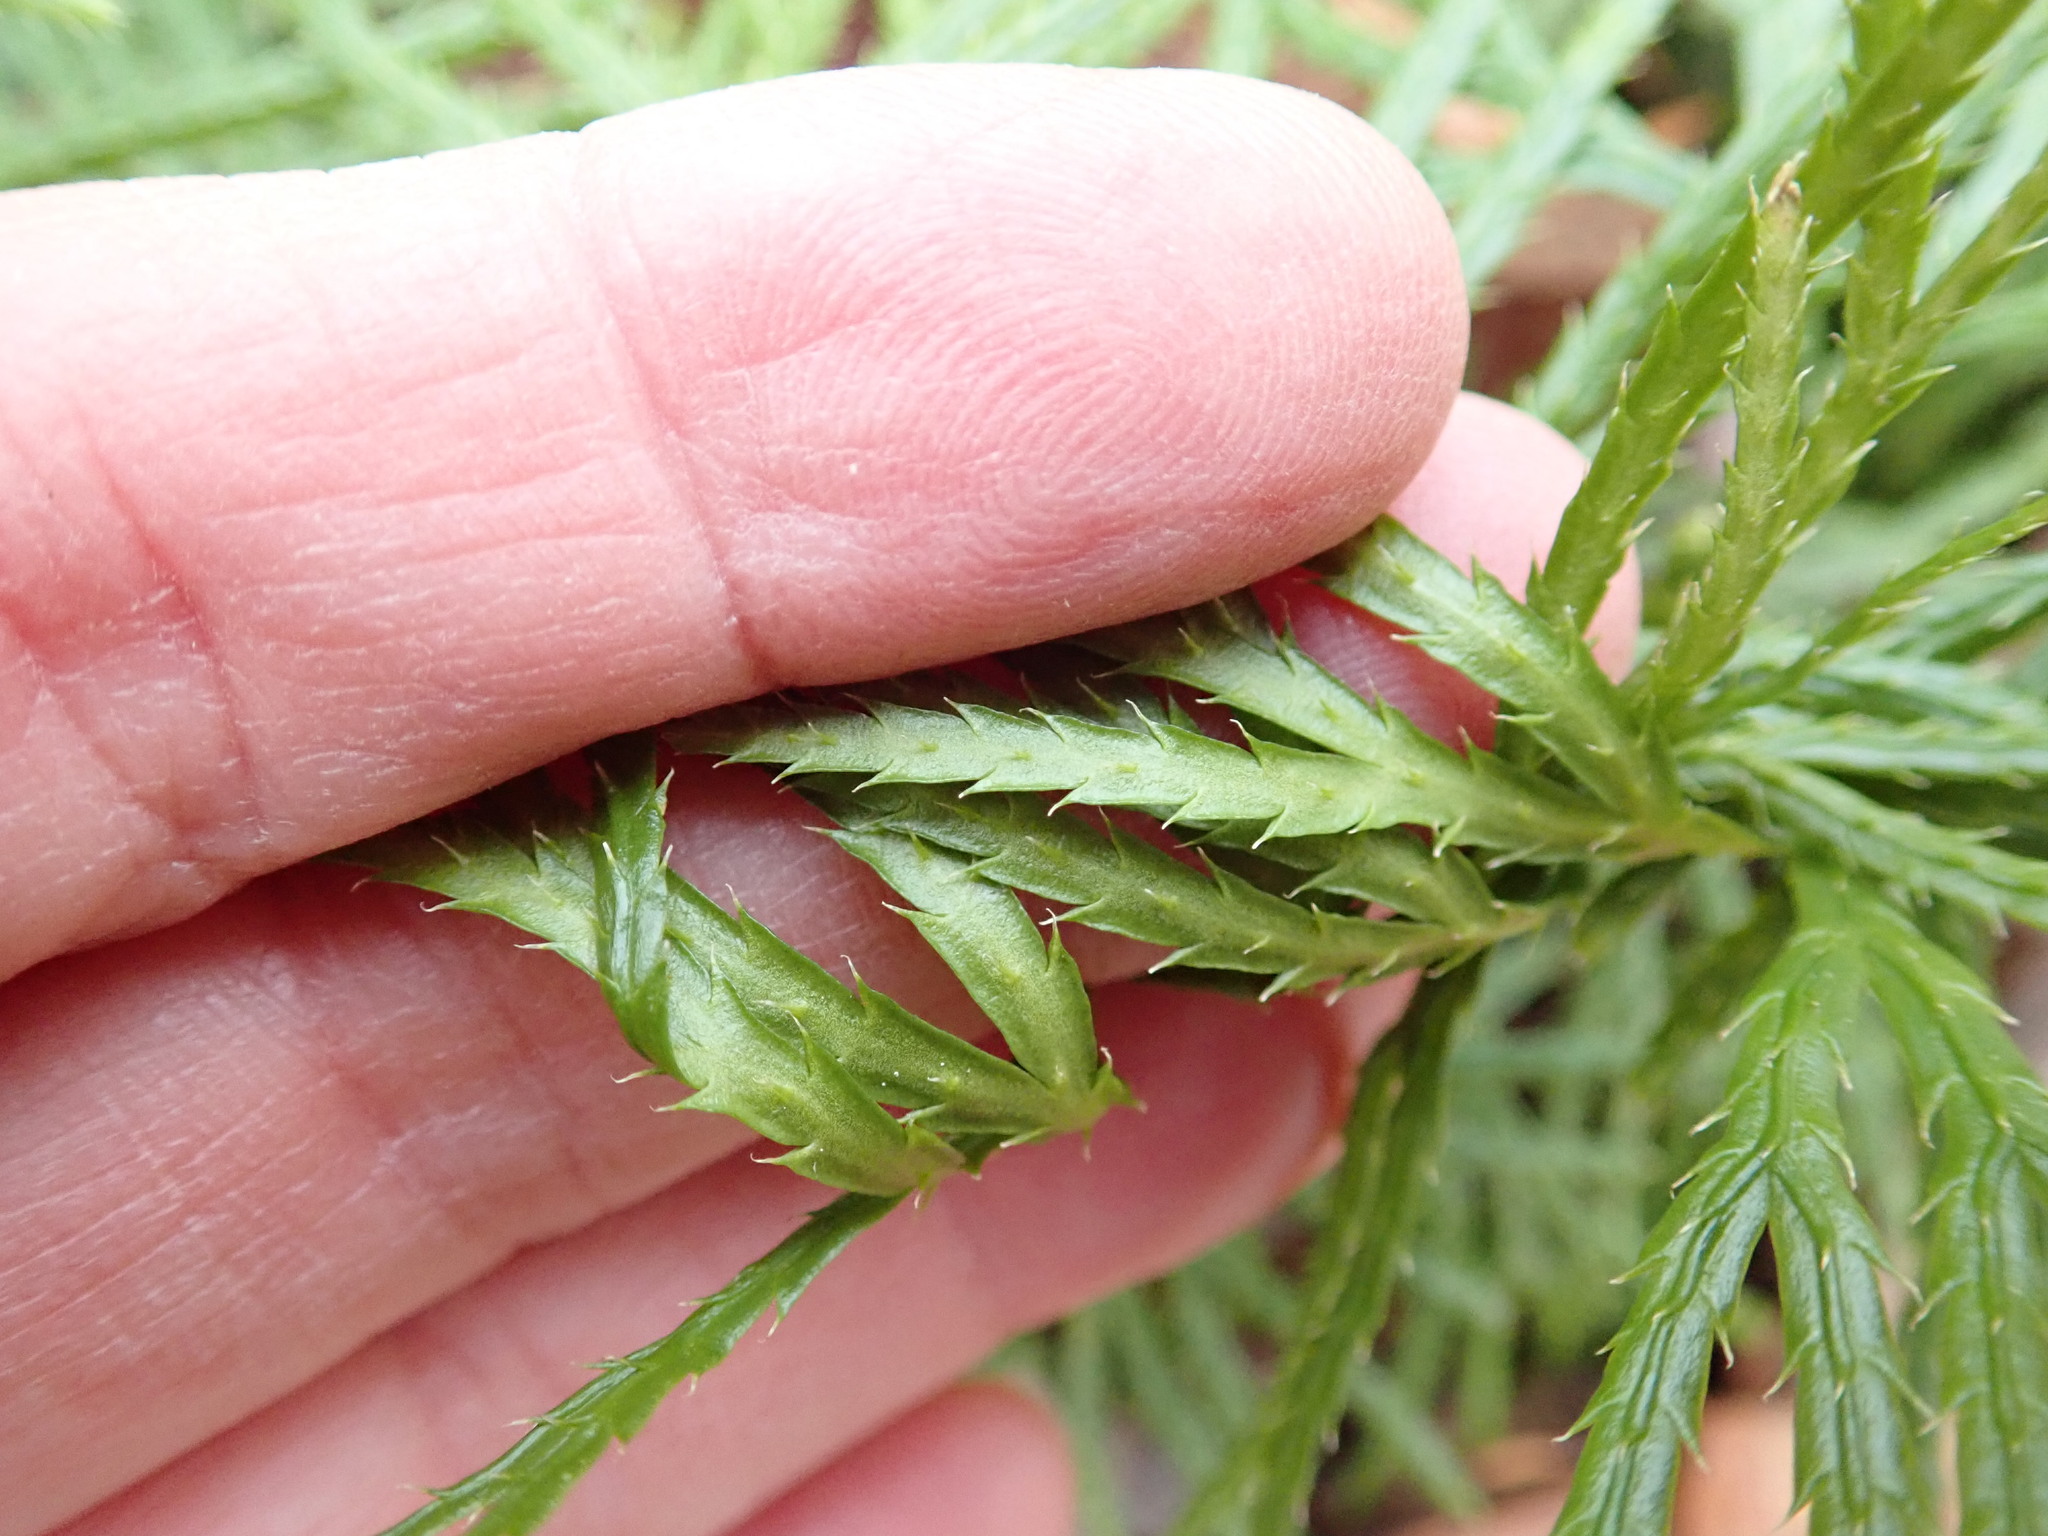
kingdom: Plantae
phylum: Tracheophyta
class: Lycopodiopsida
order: Lycopodiales
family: Lycopodiaceae
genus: Diphasiastrum
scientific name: Diphasiastrum digitatum
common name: Southern running-pine
